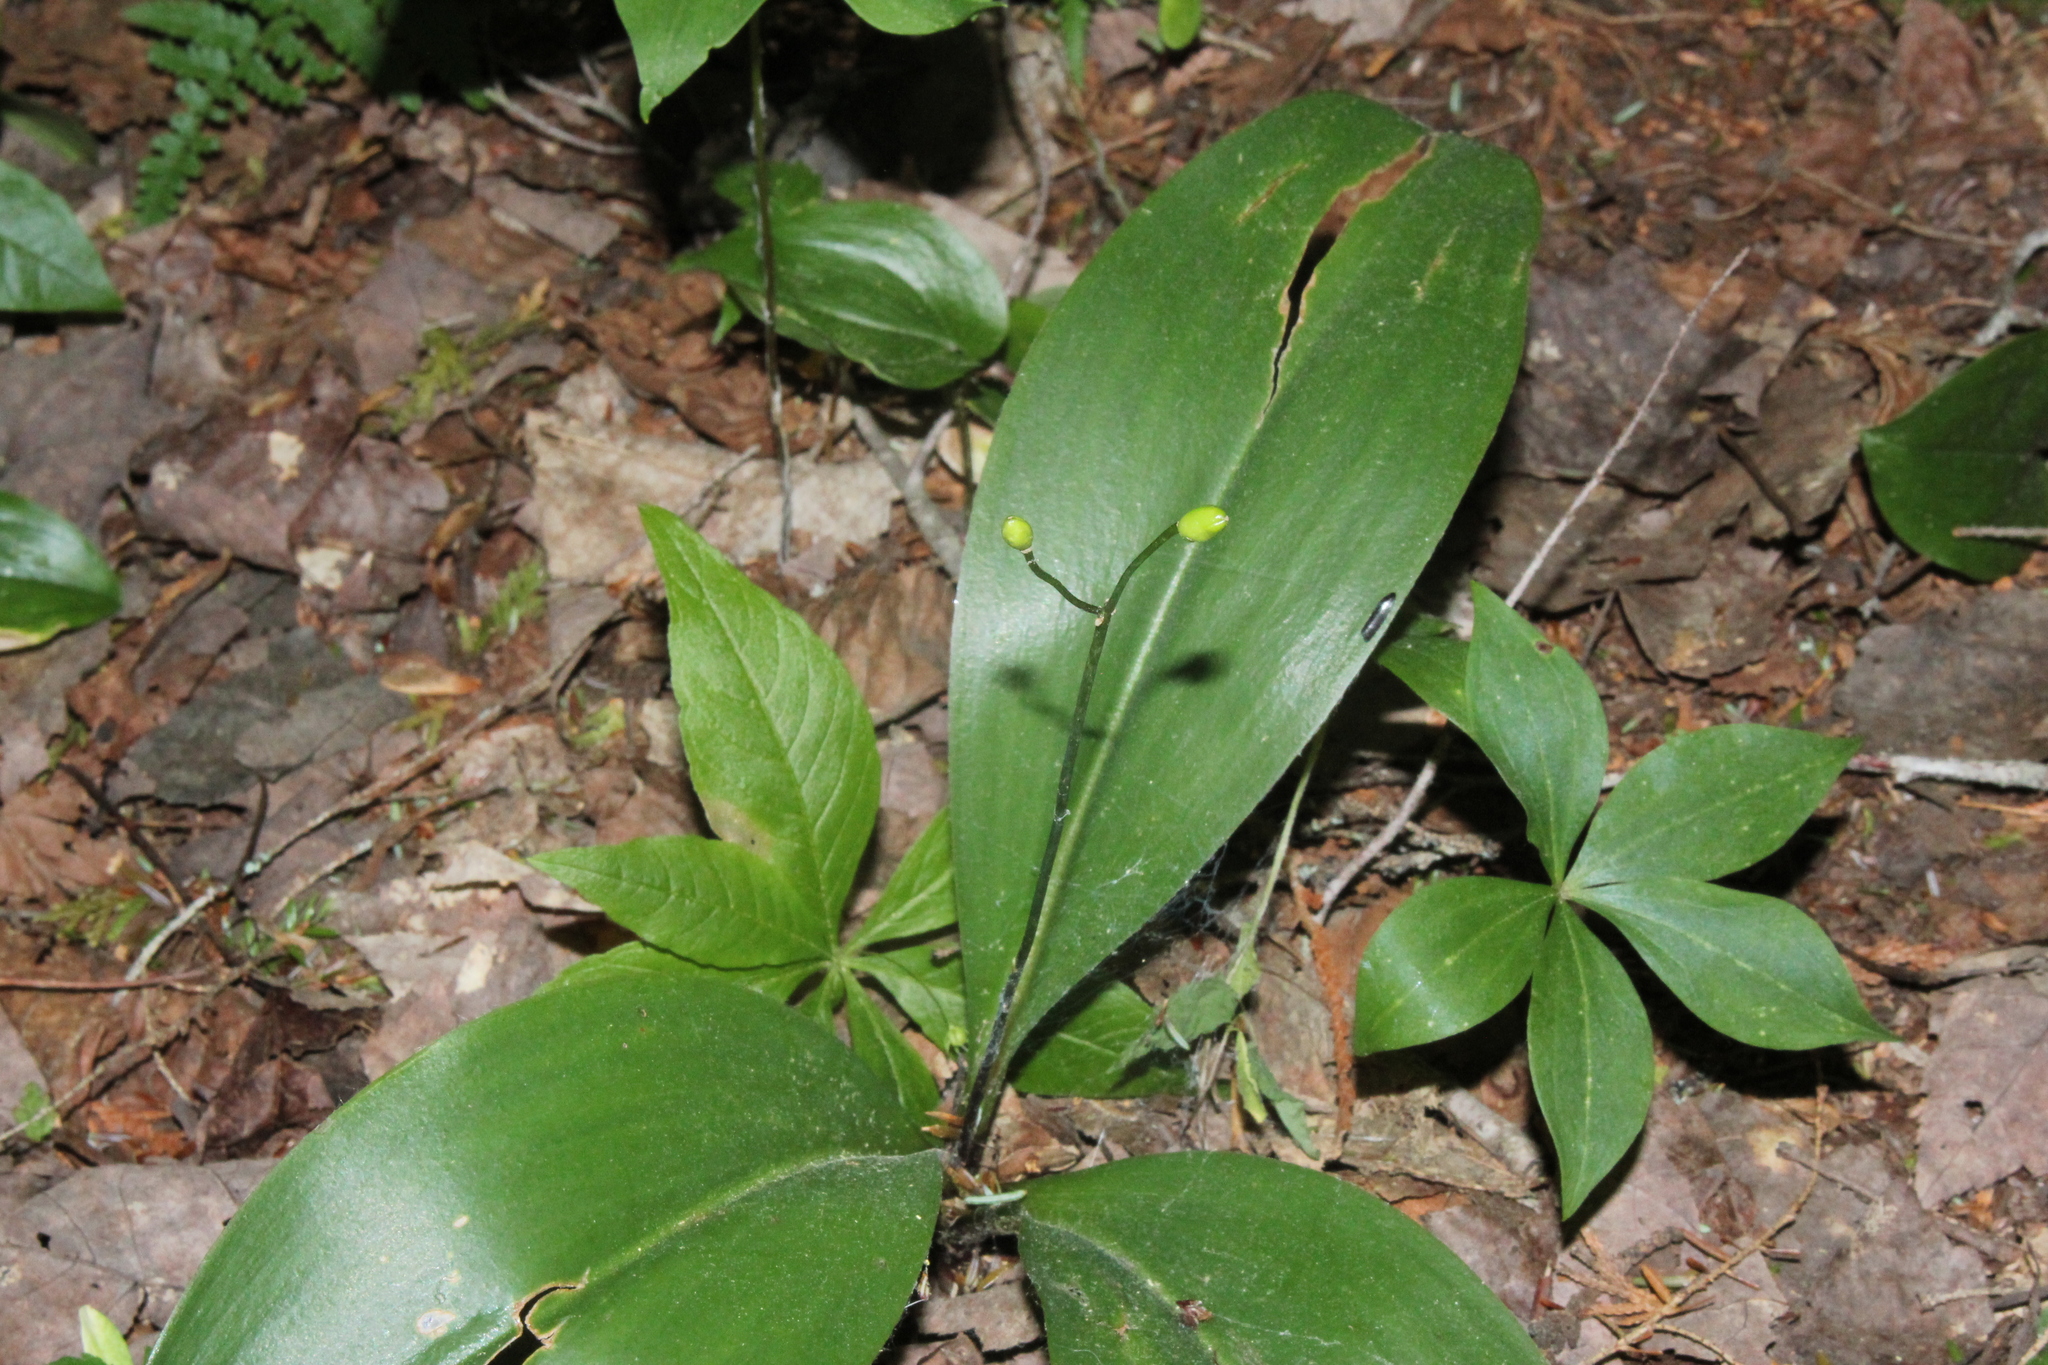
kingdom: Plantae
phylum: Tracheophyta
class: Liliopsida
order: Liliales
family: Liliaceae
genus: Clintonia
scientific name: Clintonia borealis
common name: Yellow clintonia
